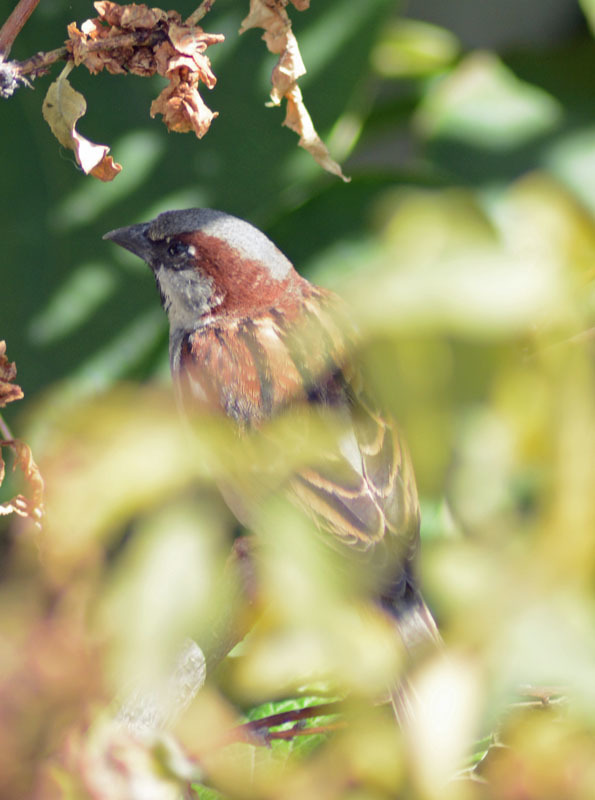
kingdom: Animalia
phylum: Chordata
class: Aves
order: Passeriformes
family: Passeridae
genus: Passer
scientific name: Passer domesticus
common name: House sparrow
